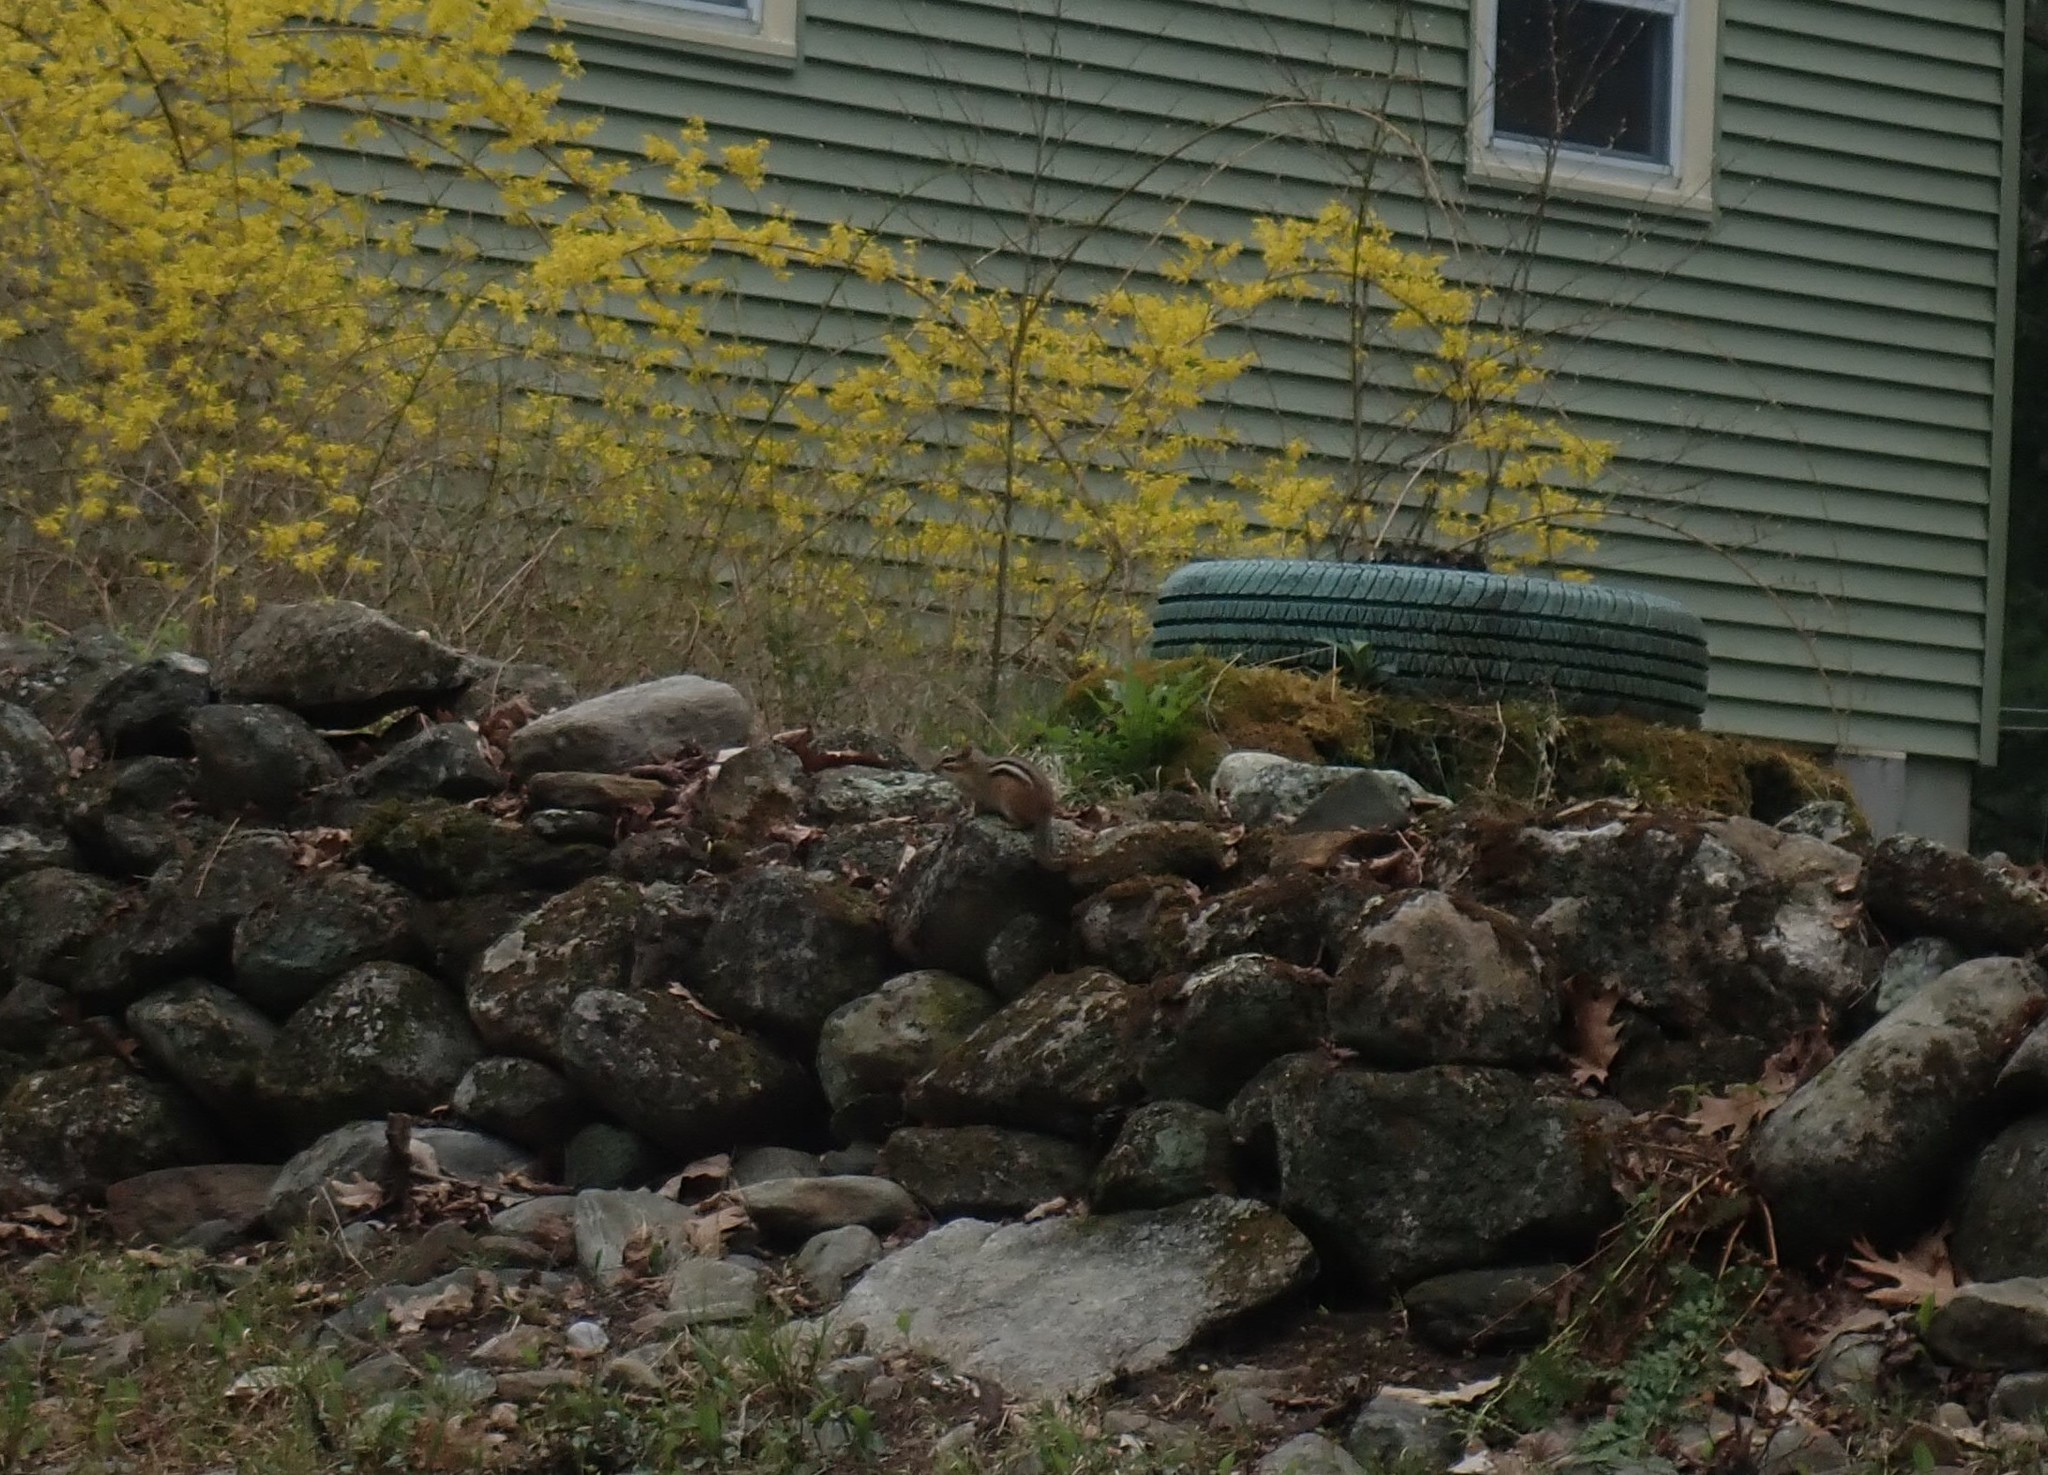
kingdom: Animalia
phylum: Chordata
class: Mammalia
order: Rodentia
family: Sciuridae
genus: Tamias
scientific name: Tamias striatus
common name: Eastern chipmunk
